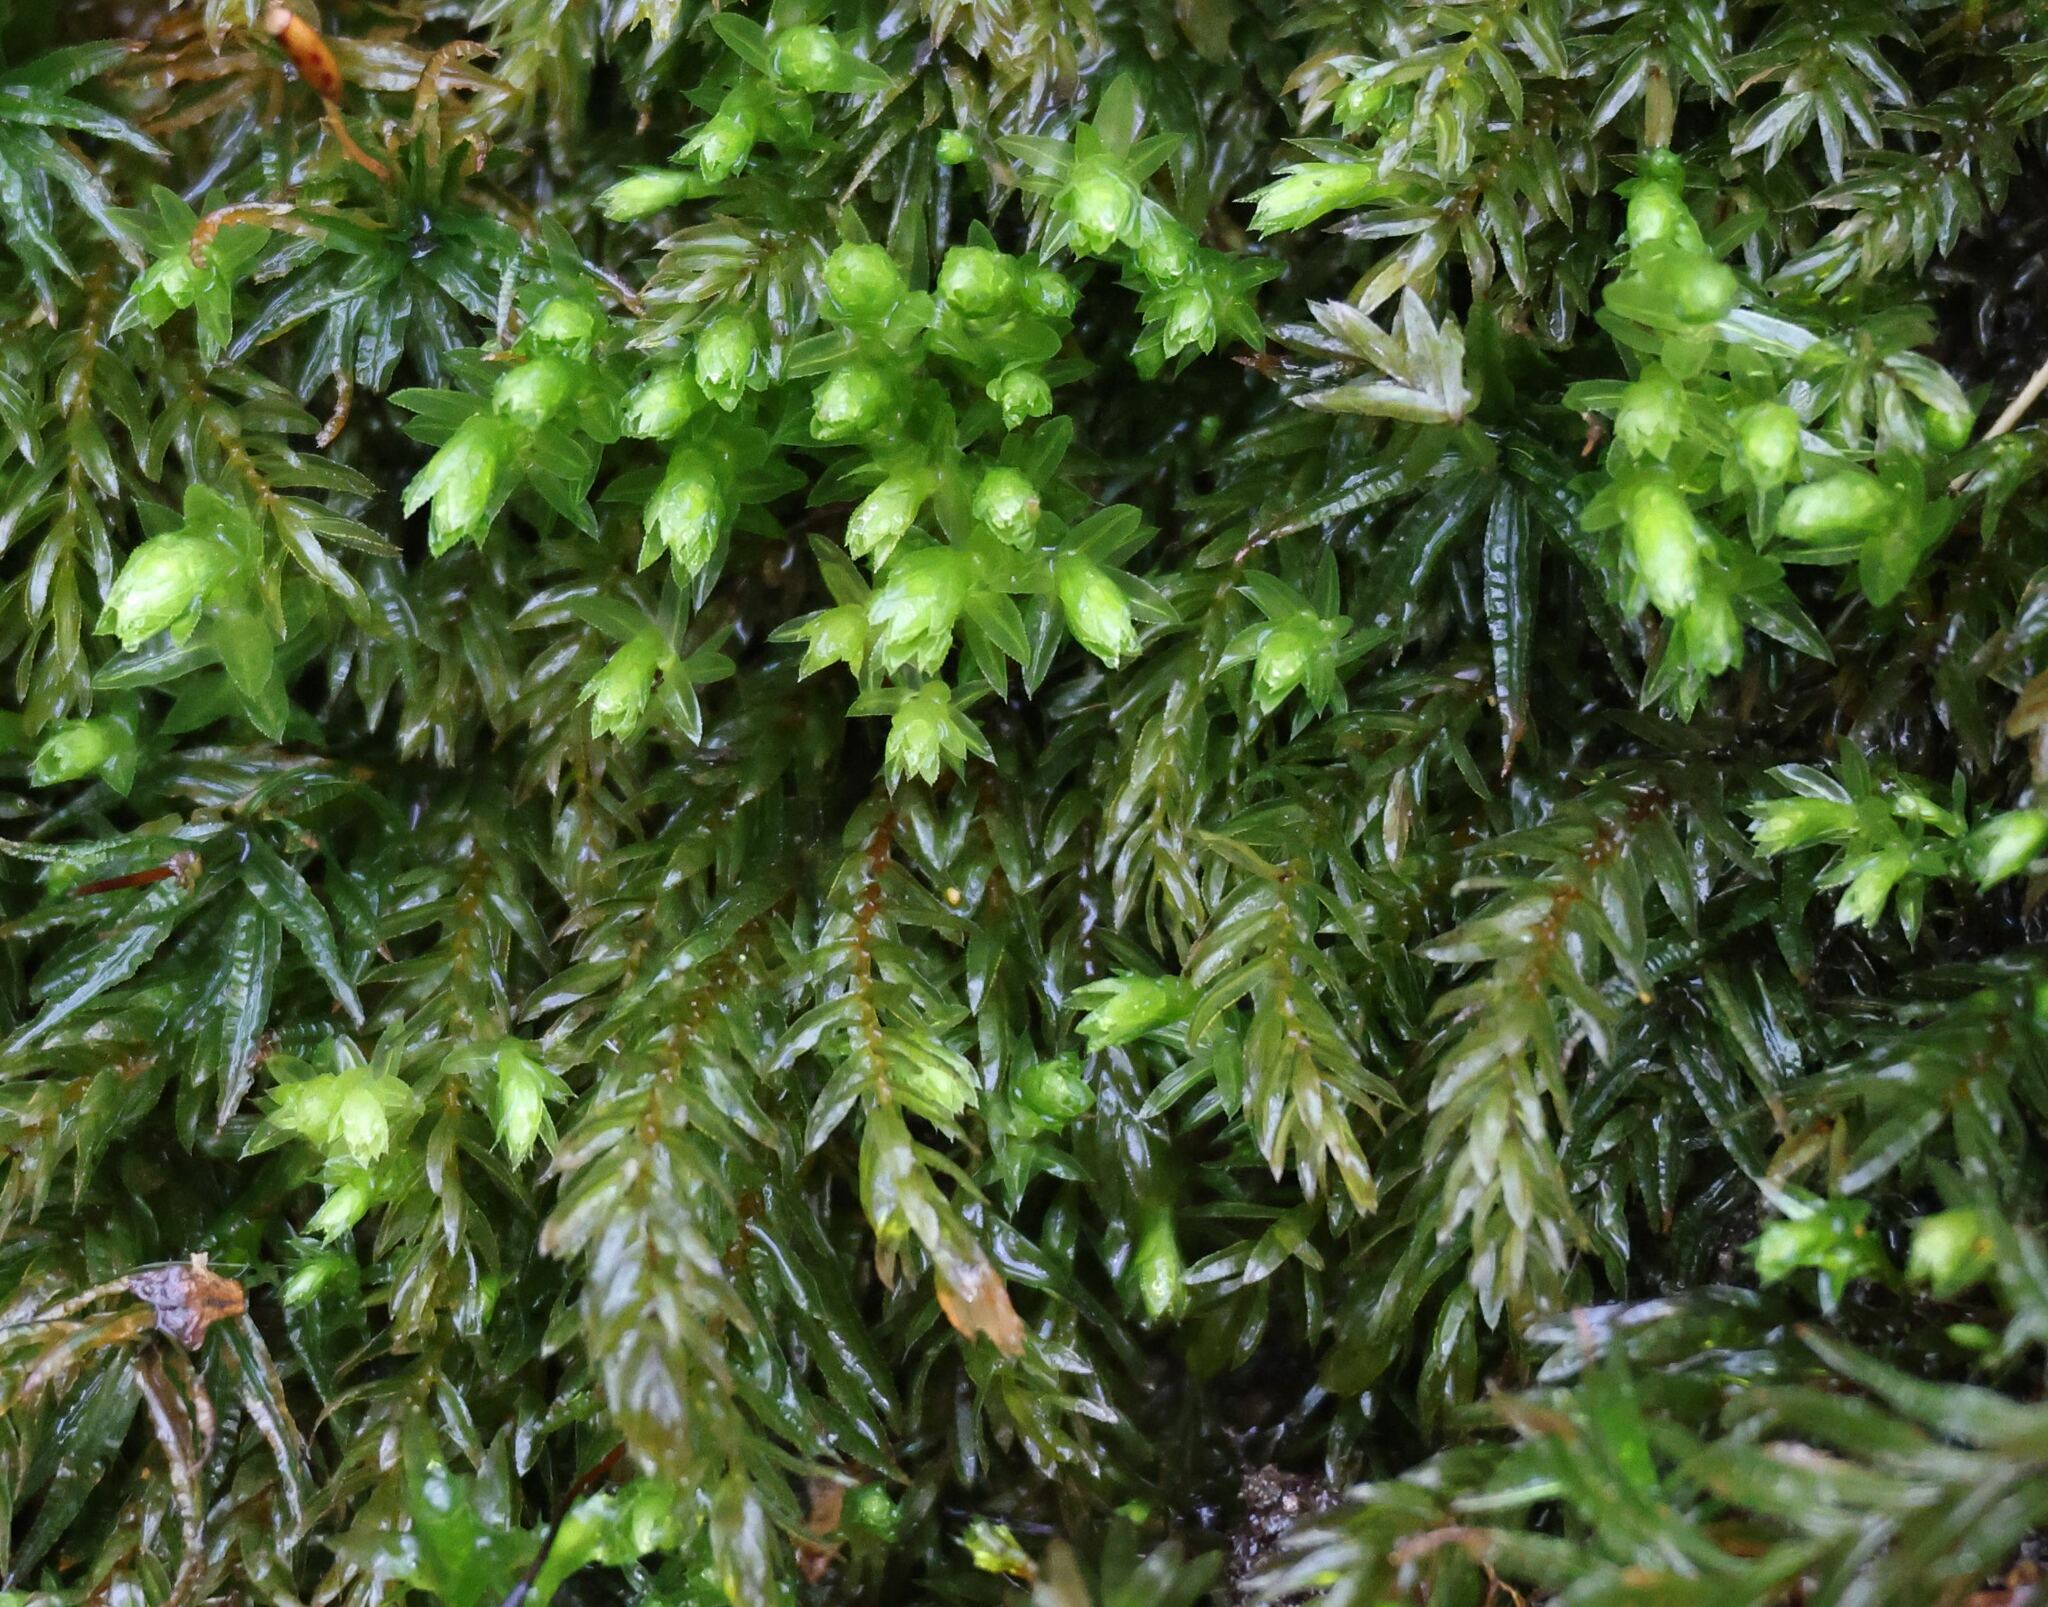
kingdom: Plantae
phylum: Bryophyta
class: Bryopsida
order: Bryales
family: Mniaceae
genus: Mnium
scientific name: Mnium hornum
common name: Swan's-neck leafy moss
